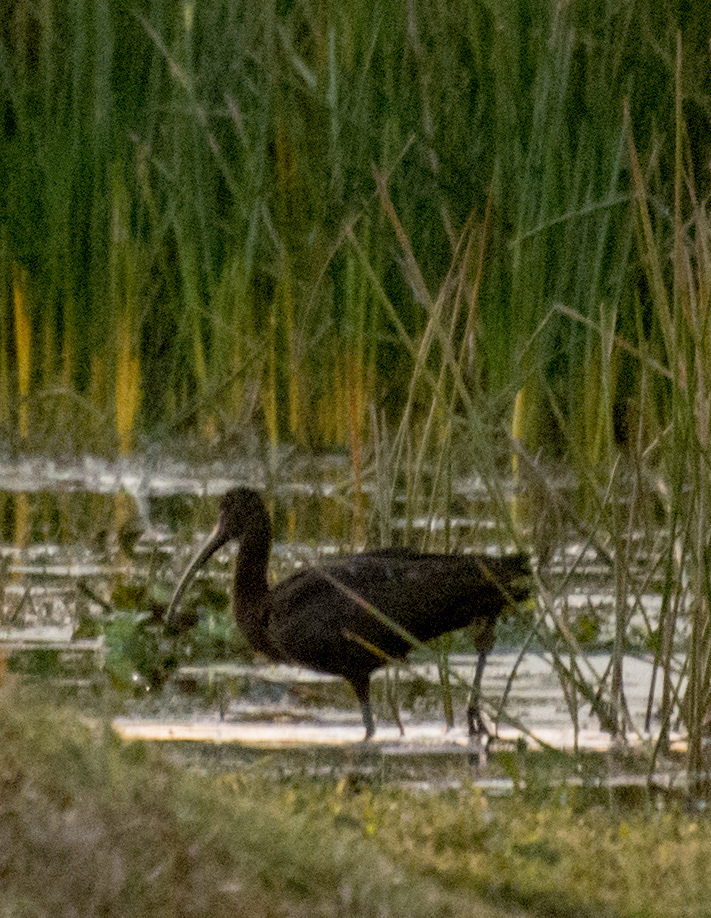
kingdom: Animalia
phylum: Chordata
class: Aves
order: Pelecaniformes
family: Threskiornithidae
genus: Plegadis
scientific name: Plegadis falcinellus
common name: Glossy ibis
